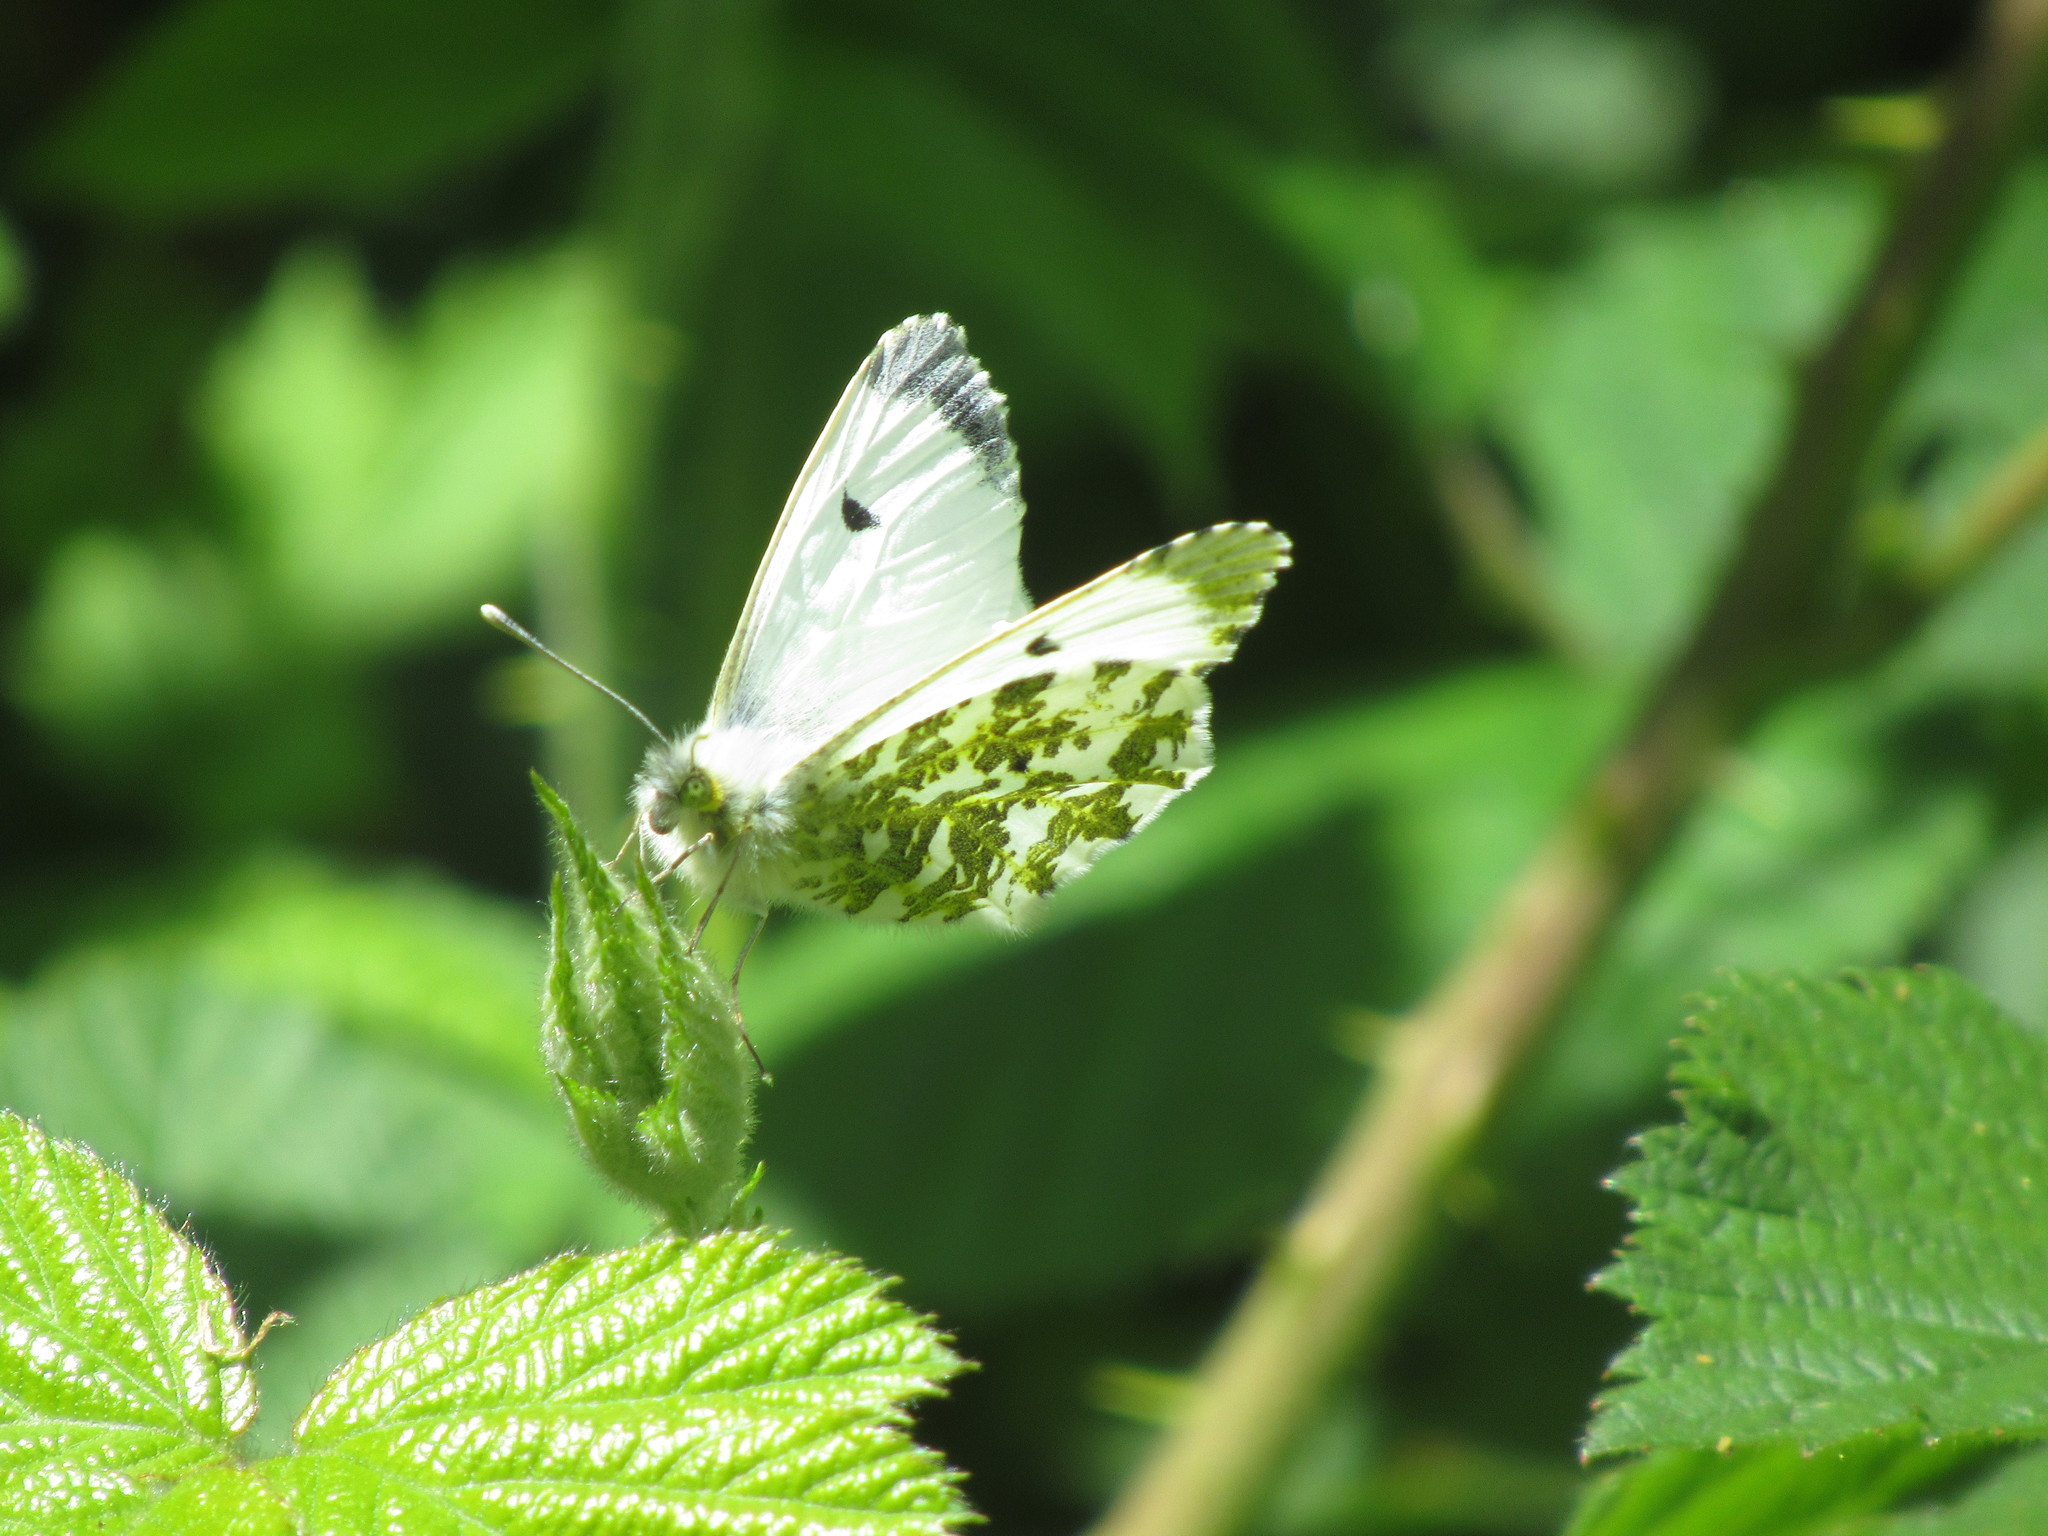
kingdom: Animalia
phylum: Arthropoda
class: Insecta
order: Lepidoptera
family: Pieridae
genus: Anthocharis
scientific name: Anthocharis cardamines
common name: Orange-tip
